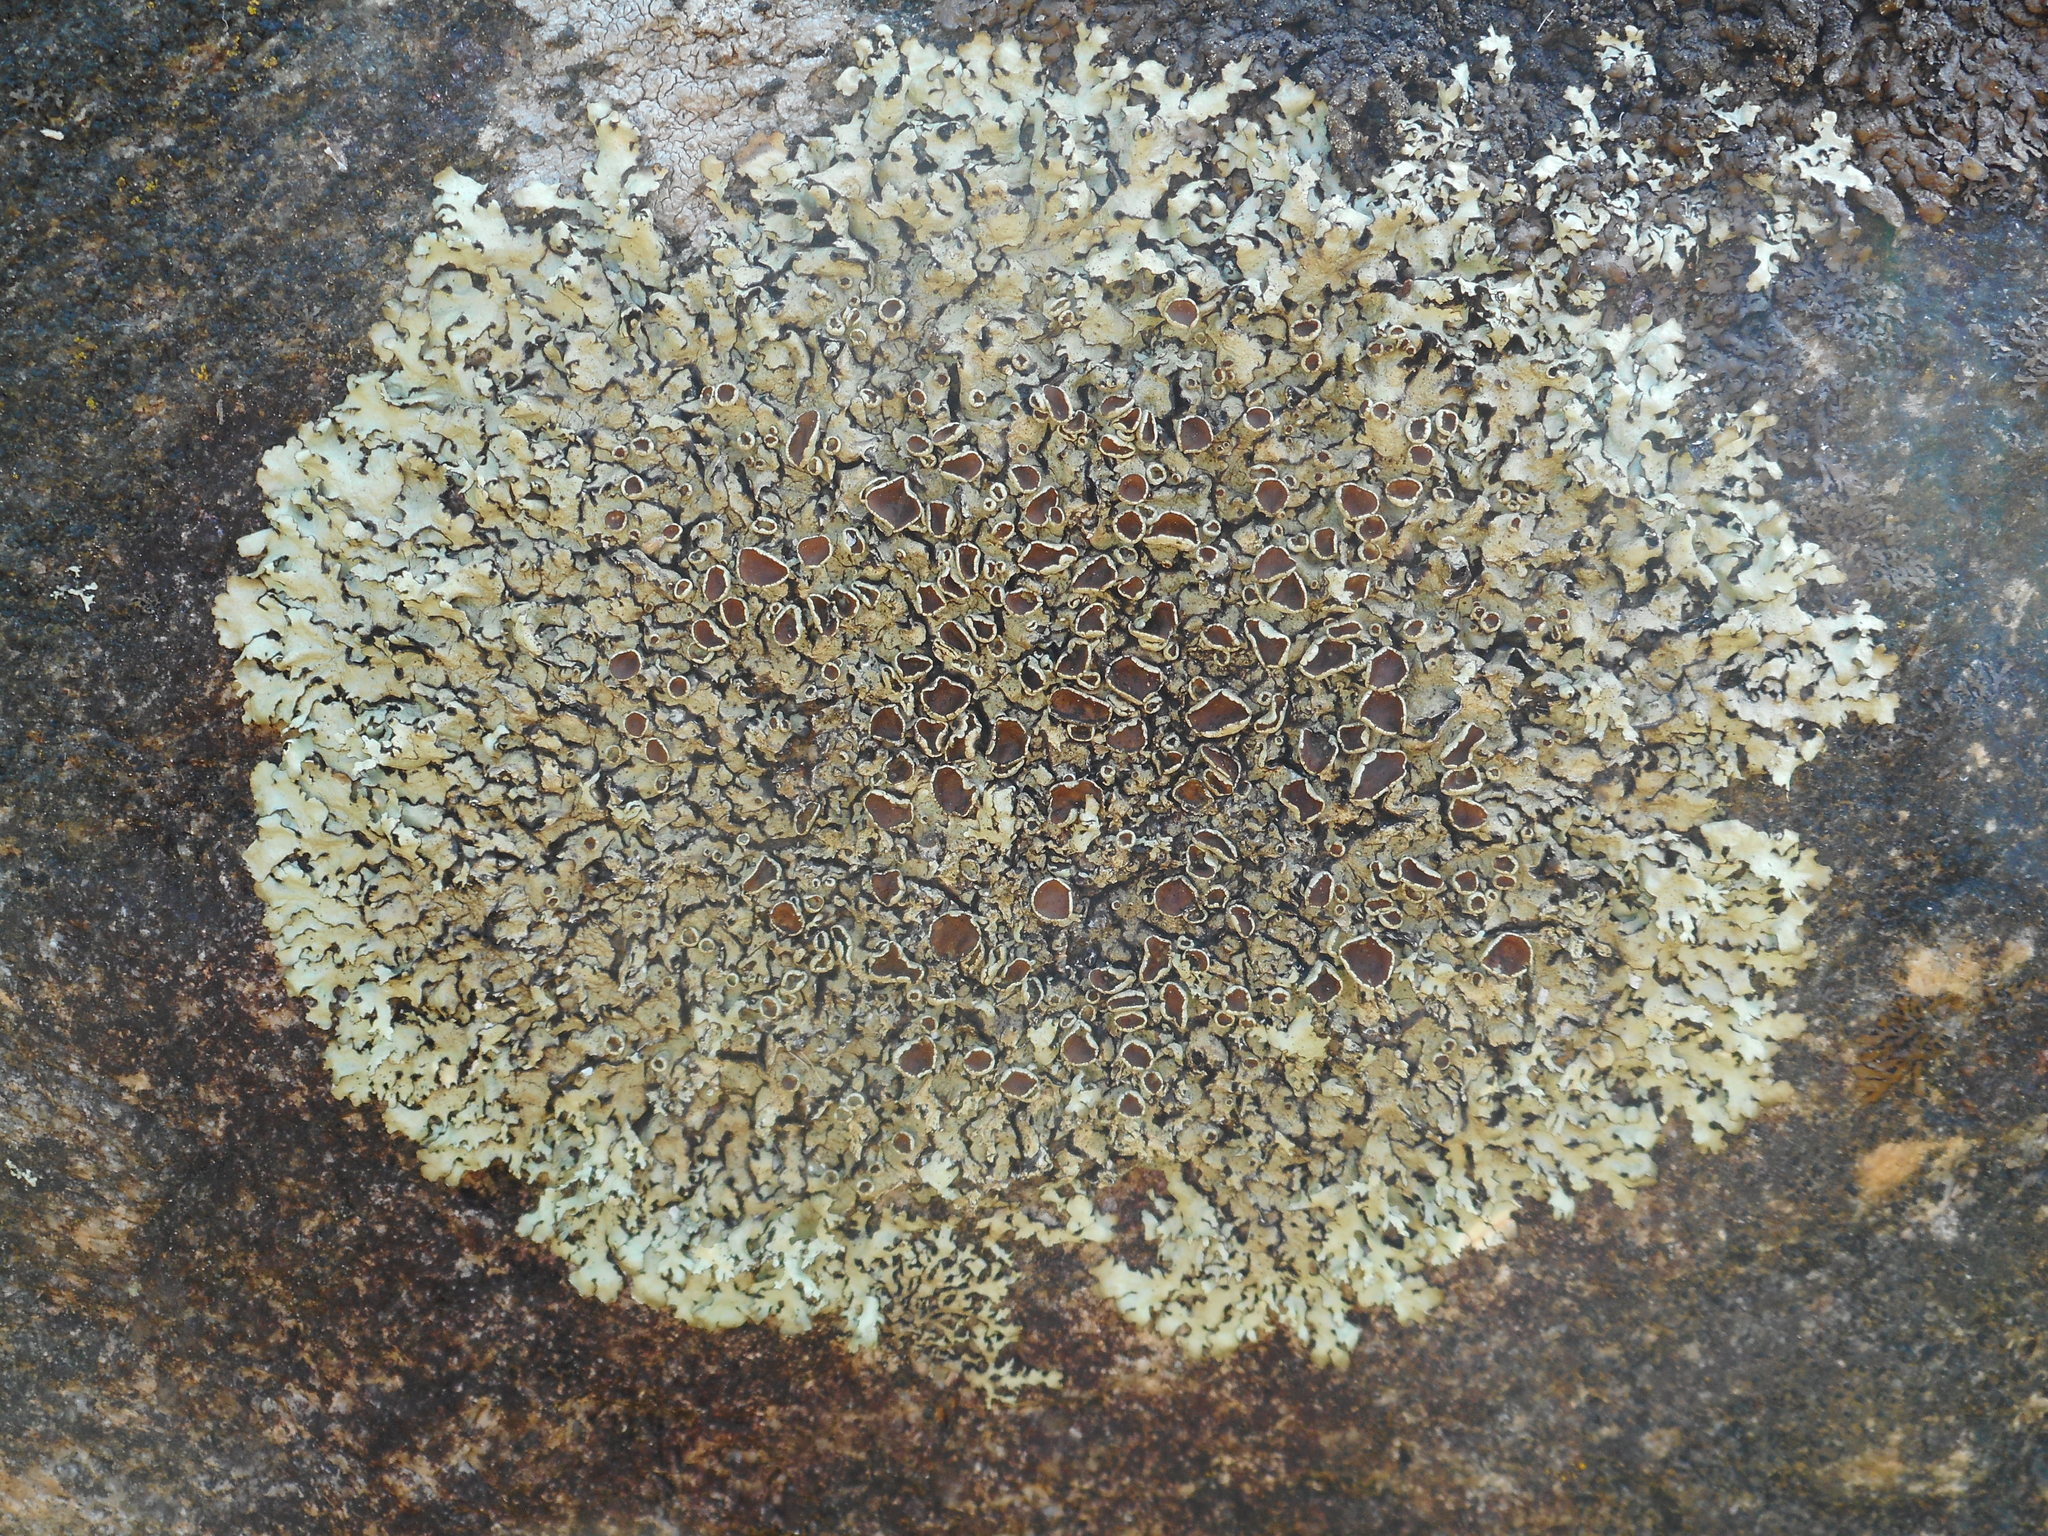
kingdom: Fungi
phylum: Ascomycota
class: Lecanoromycetes
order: Lecanorales
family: Parmeliaceae
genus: Xanthoparmelia
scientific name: Xanthoparmelia stenophylla
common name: Shingled rock shield
